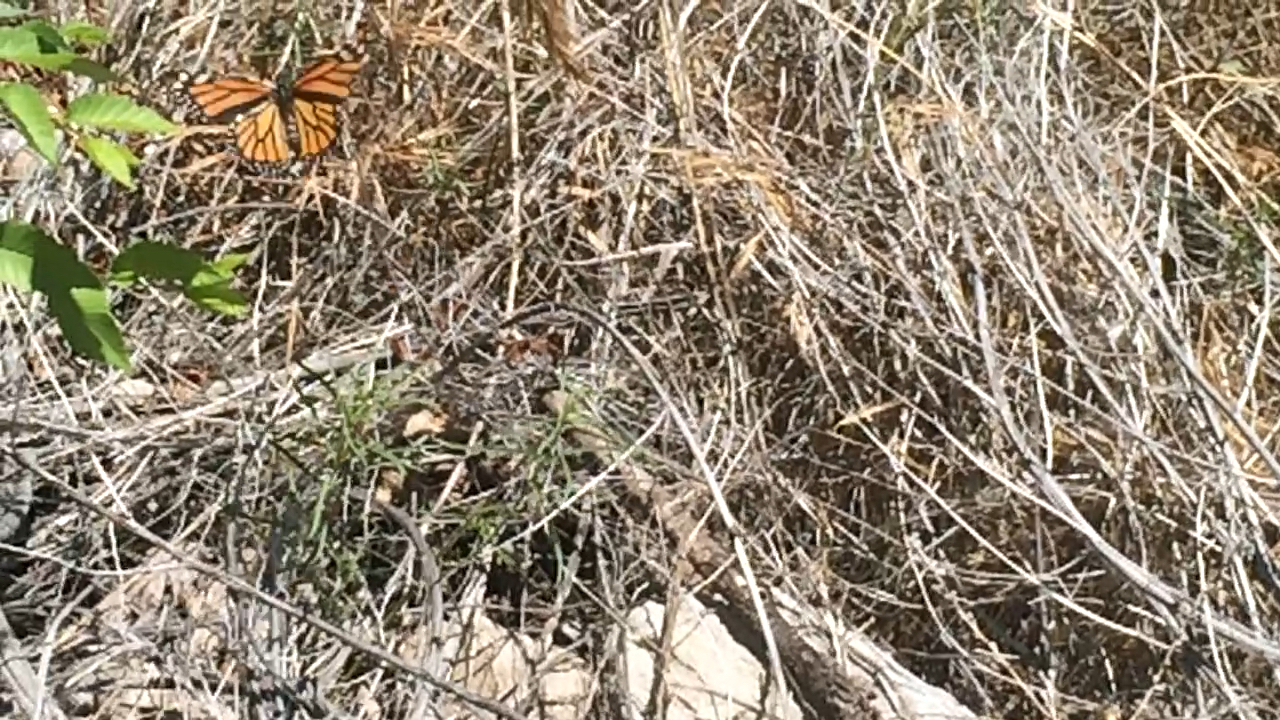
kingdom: Plantae
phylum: Tracheophyta
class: Magnoliopsida
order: Gentianales
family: Apocynaceae
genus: Asclepias
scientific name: Asclepias fascicularis
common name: Mexican milkweed
